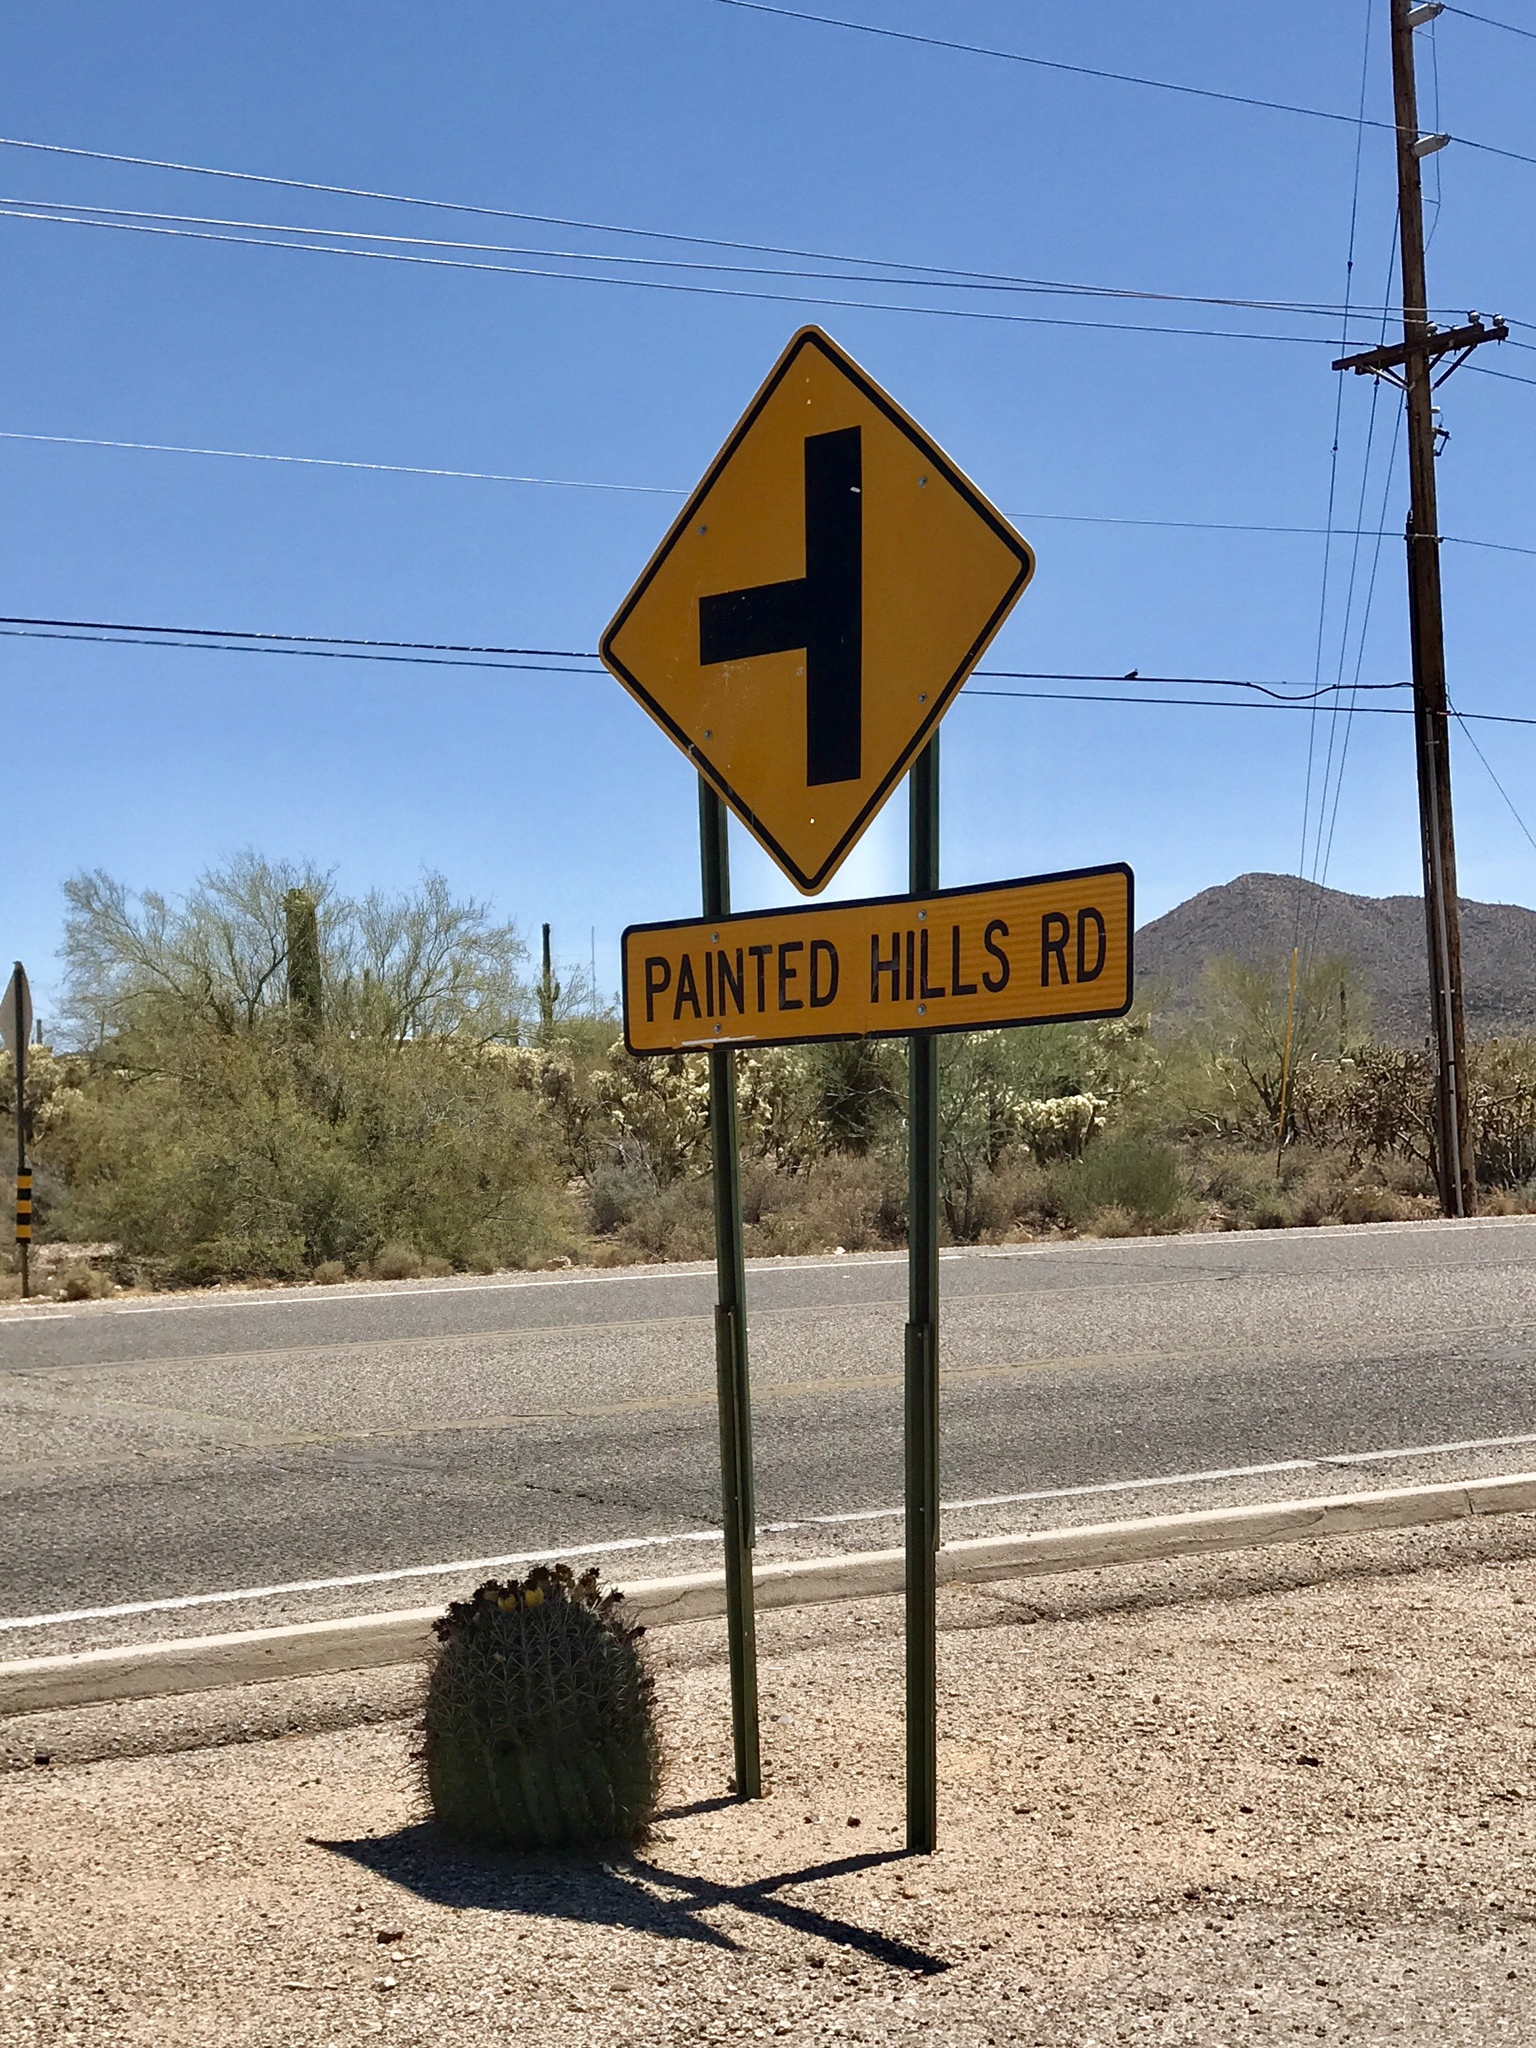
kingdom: Plantae
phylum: Tracheophyta
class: Magnoliopsida
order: Caryophyllales
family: Cactaceae
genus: Ferocactus
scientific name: Ferocactus wislizeni
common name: Candy barrel cactus
